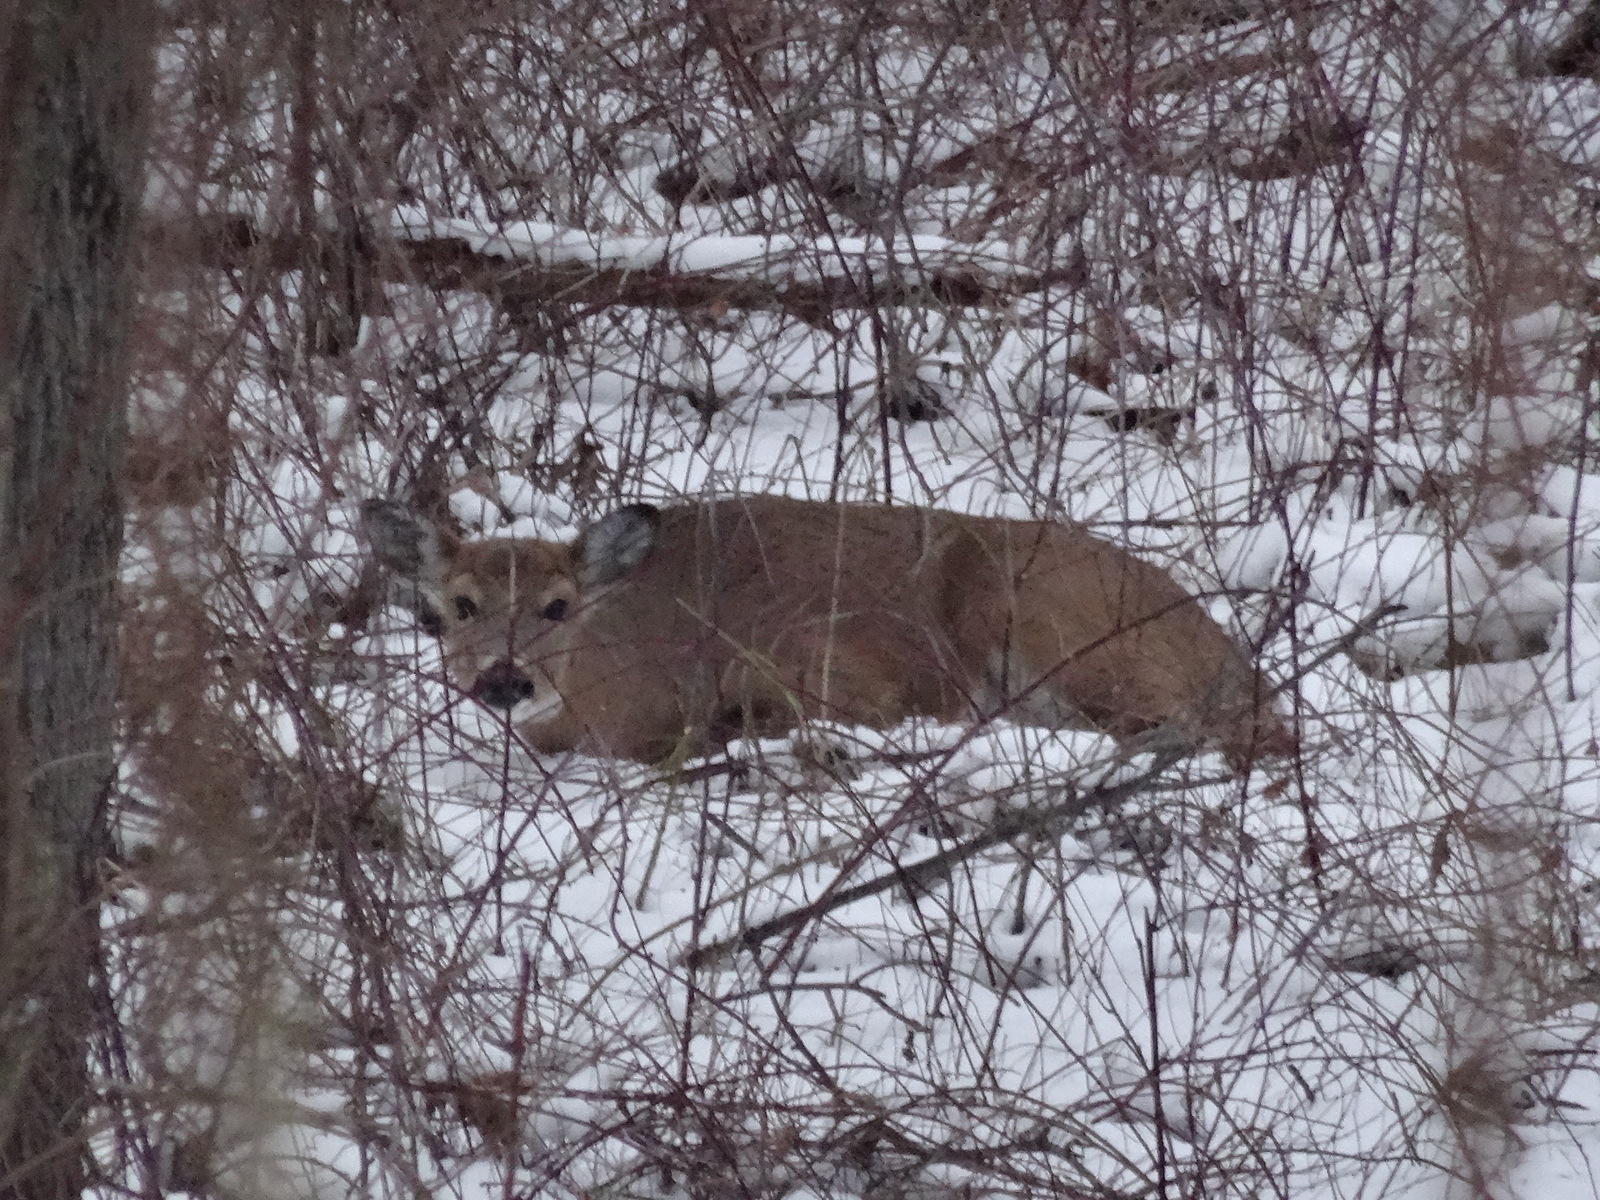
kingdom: Animalia
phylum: Chordata
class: Mammalia
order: Artiodactyla
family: Cervidae
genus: Odocoileus
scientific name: Odocoileus virginianus
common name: White-tailed deer
